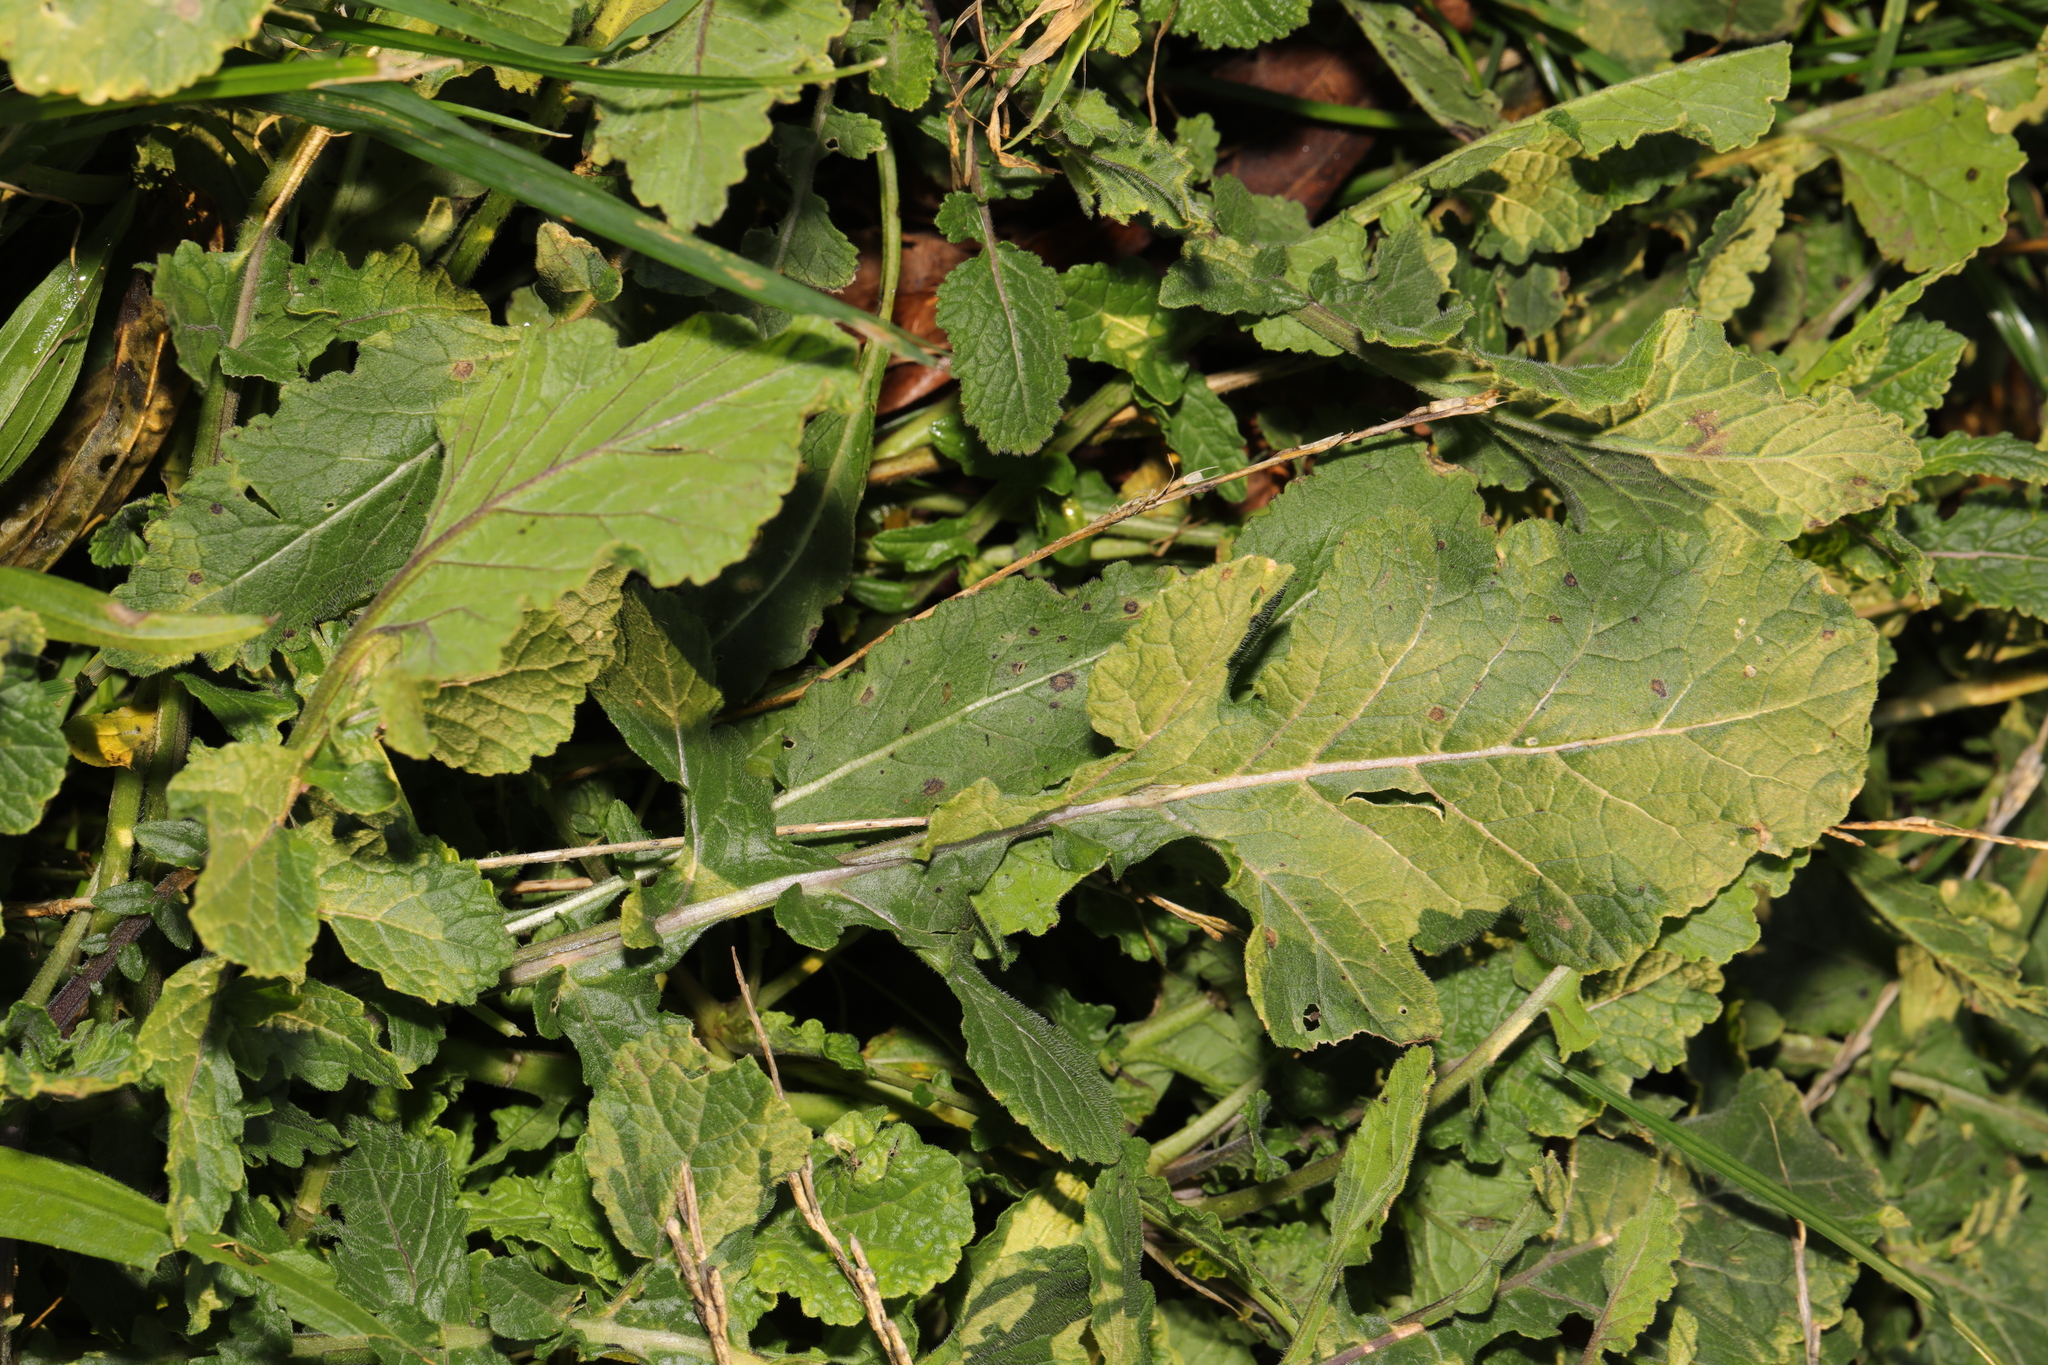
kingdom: Plantae
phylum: Tracheophyta
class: Magnoliopsida
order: Brassicales
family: Brassicaceae
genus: Hirschfeldia
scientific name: Hirschfeldia incana
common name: Hoary mustard
